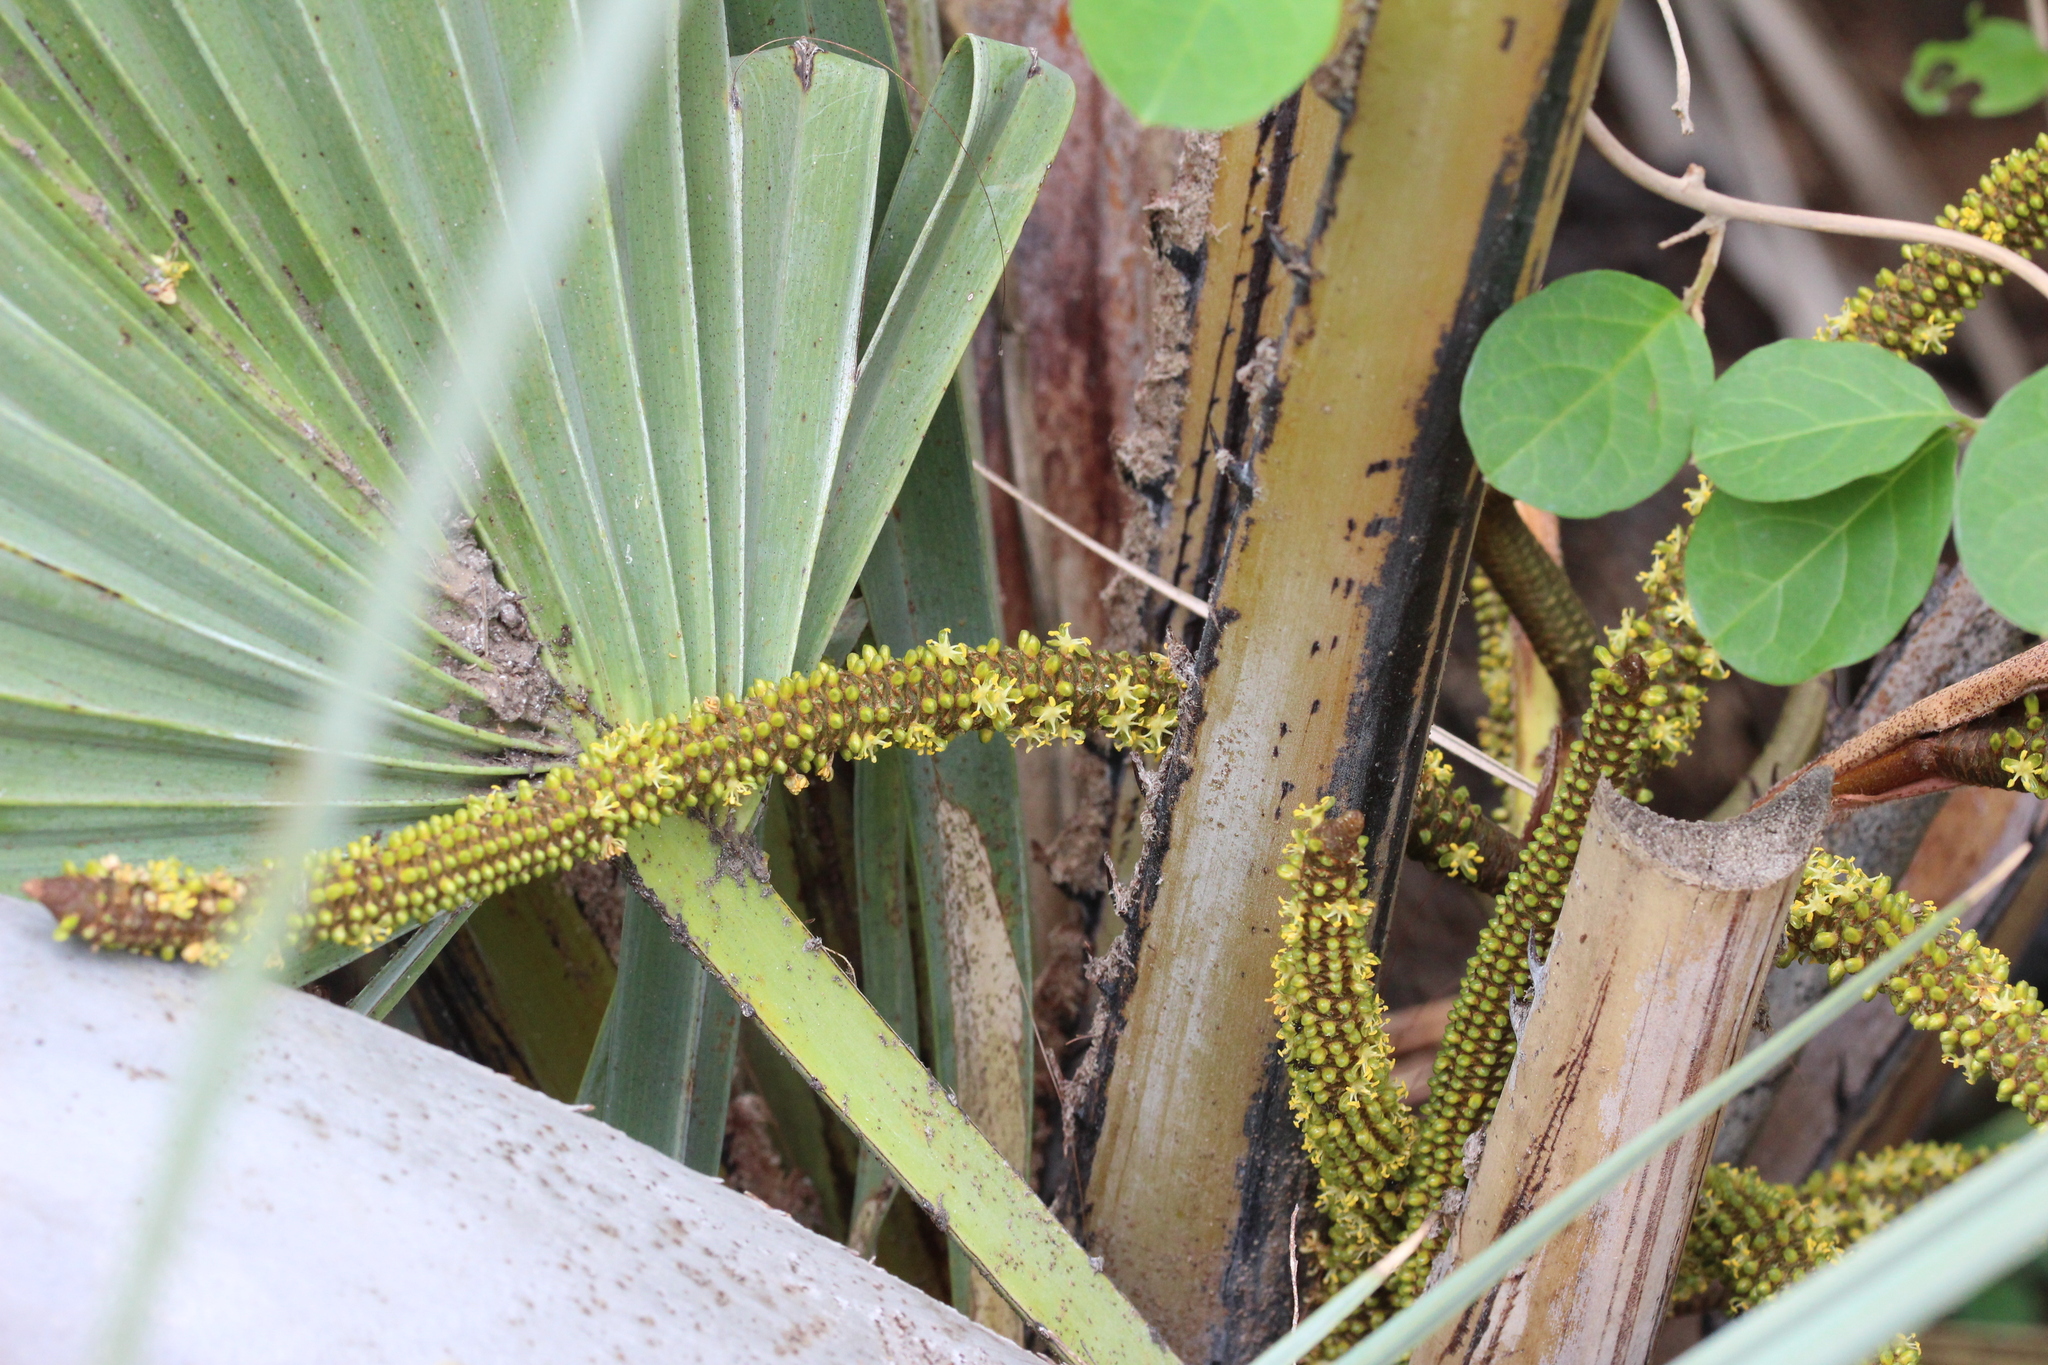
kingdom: Plantae
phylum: Tracheophyta
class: Liliopsida
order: Arecales
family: Arecaceae
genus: Hyphaene
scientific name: Hyphaene petersiana
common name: African ivory nut palm
